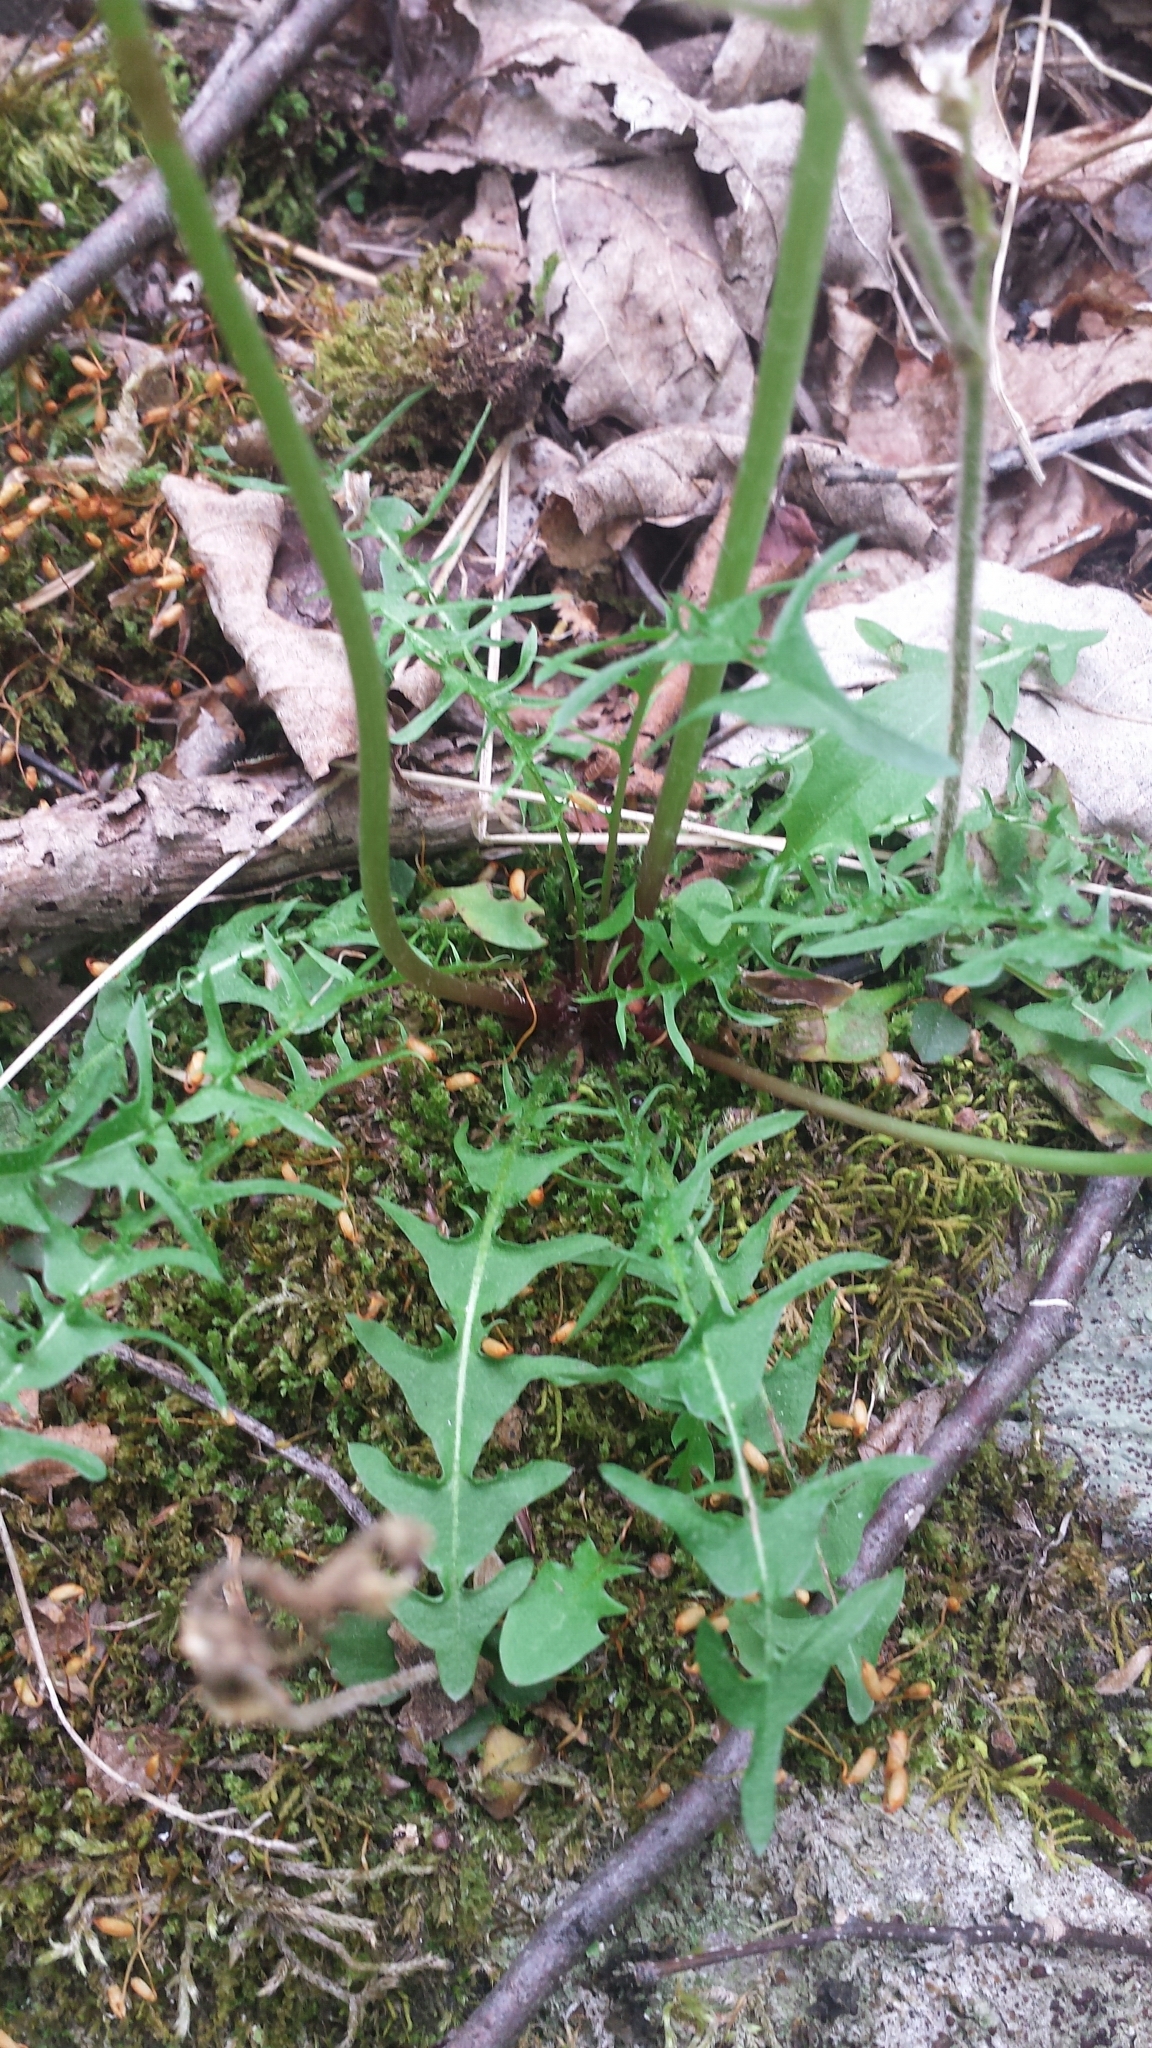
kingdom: Plantae
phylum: Tracheophyta
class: Magnoliopsida
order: Asterales
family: Asteraceae
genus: Taraxacum
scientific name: Taraxacum erythrospermum
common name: Rock dandelion
